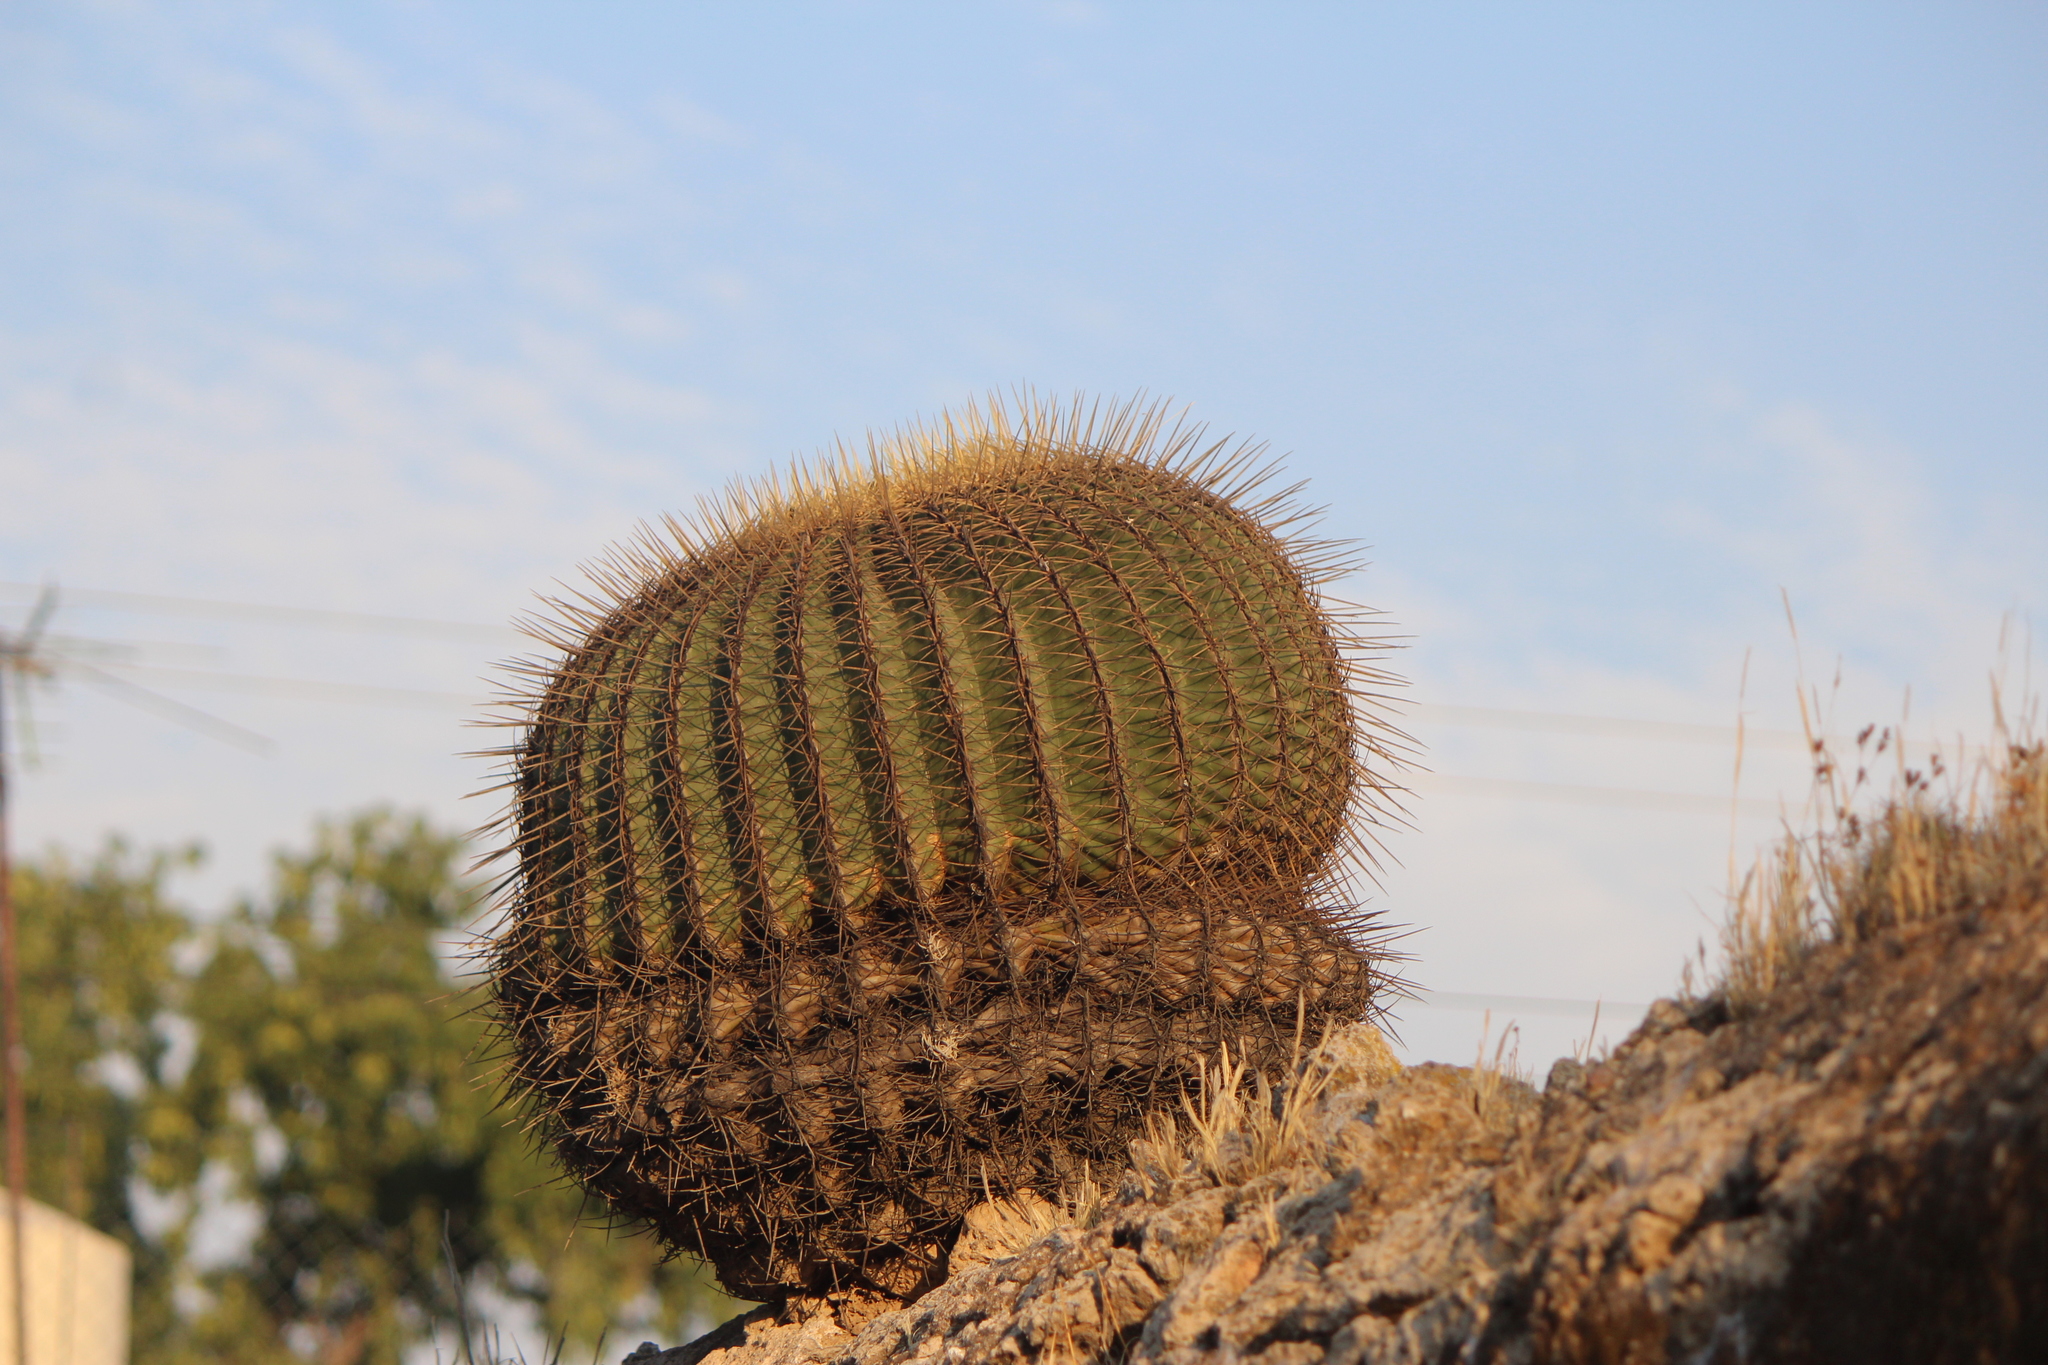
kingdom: Plantae
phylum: Tracheophyta
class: Magnoliopsida
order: Caryophyllales
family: Cactaceae
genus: Bisnaga
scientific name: Bisnaga histrix
